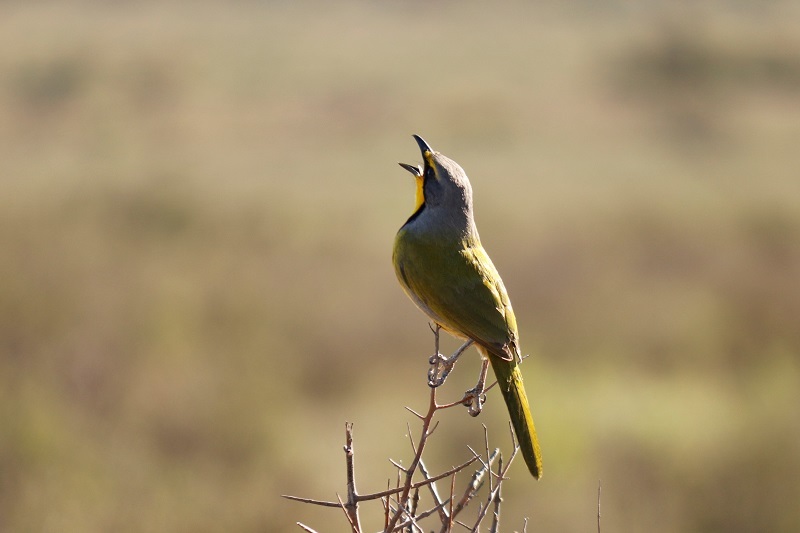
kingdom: Animalia
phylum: Chordata
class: Aves
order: Passeriformes
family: Malaconotidae
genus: Telophorus
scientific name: Telophorus zeylonus
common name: Bokmakierie
